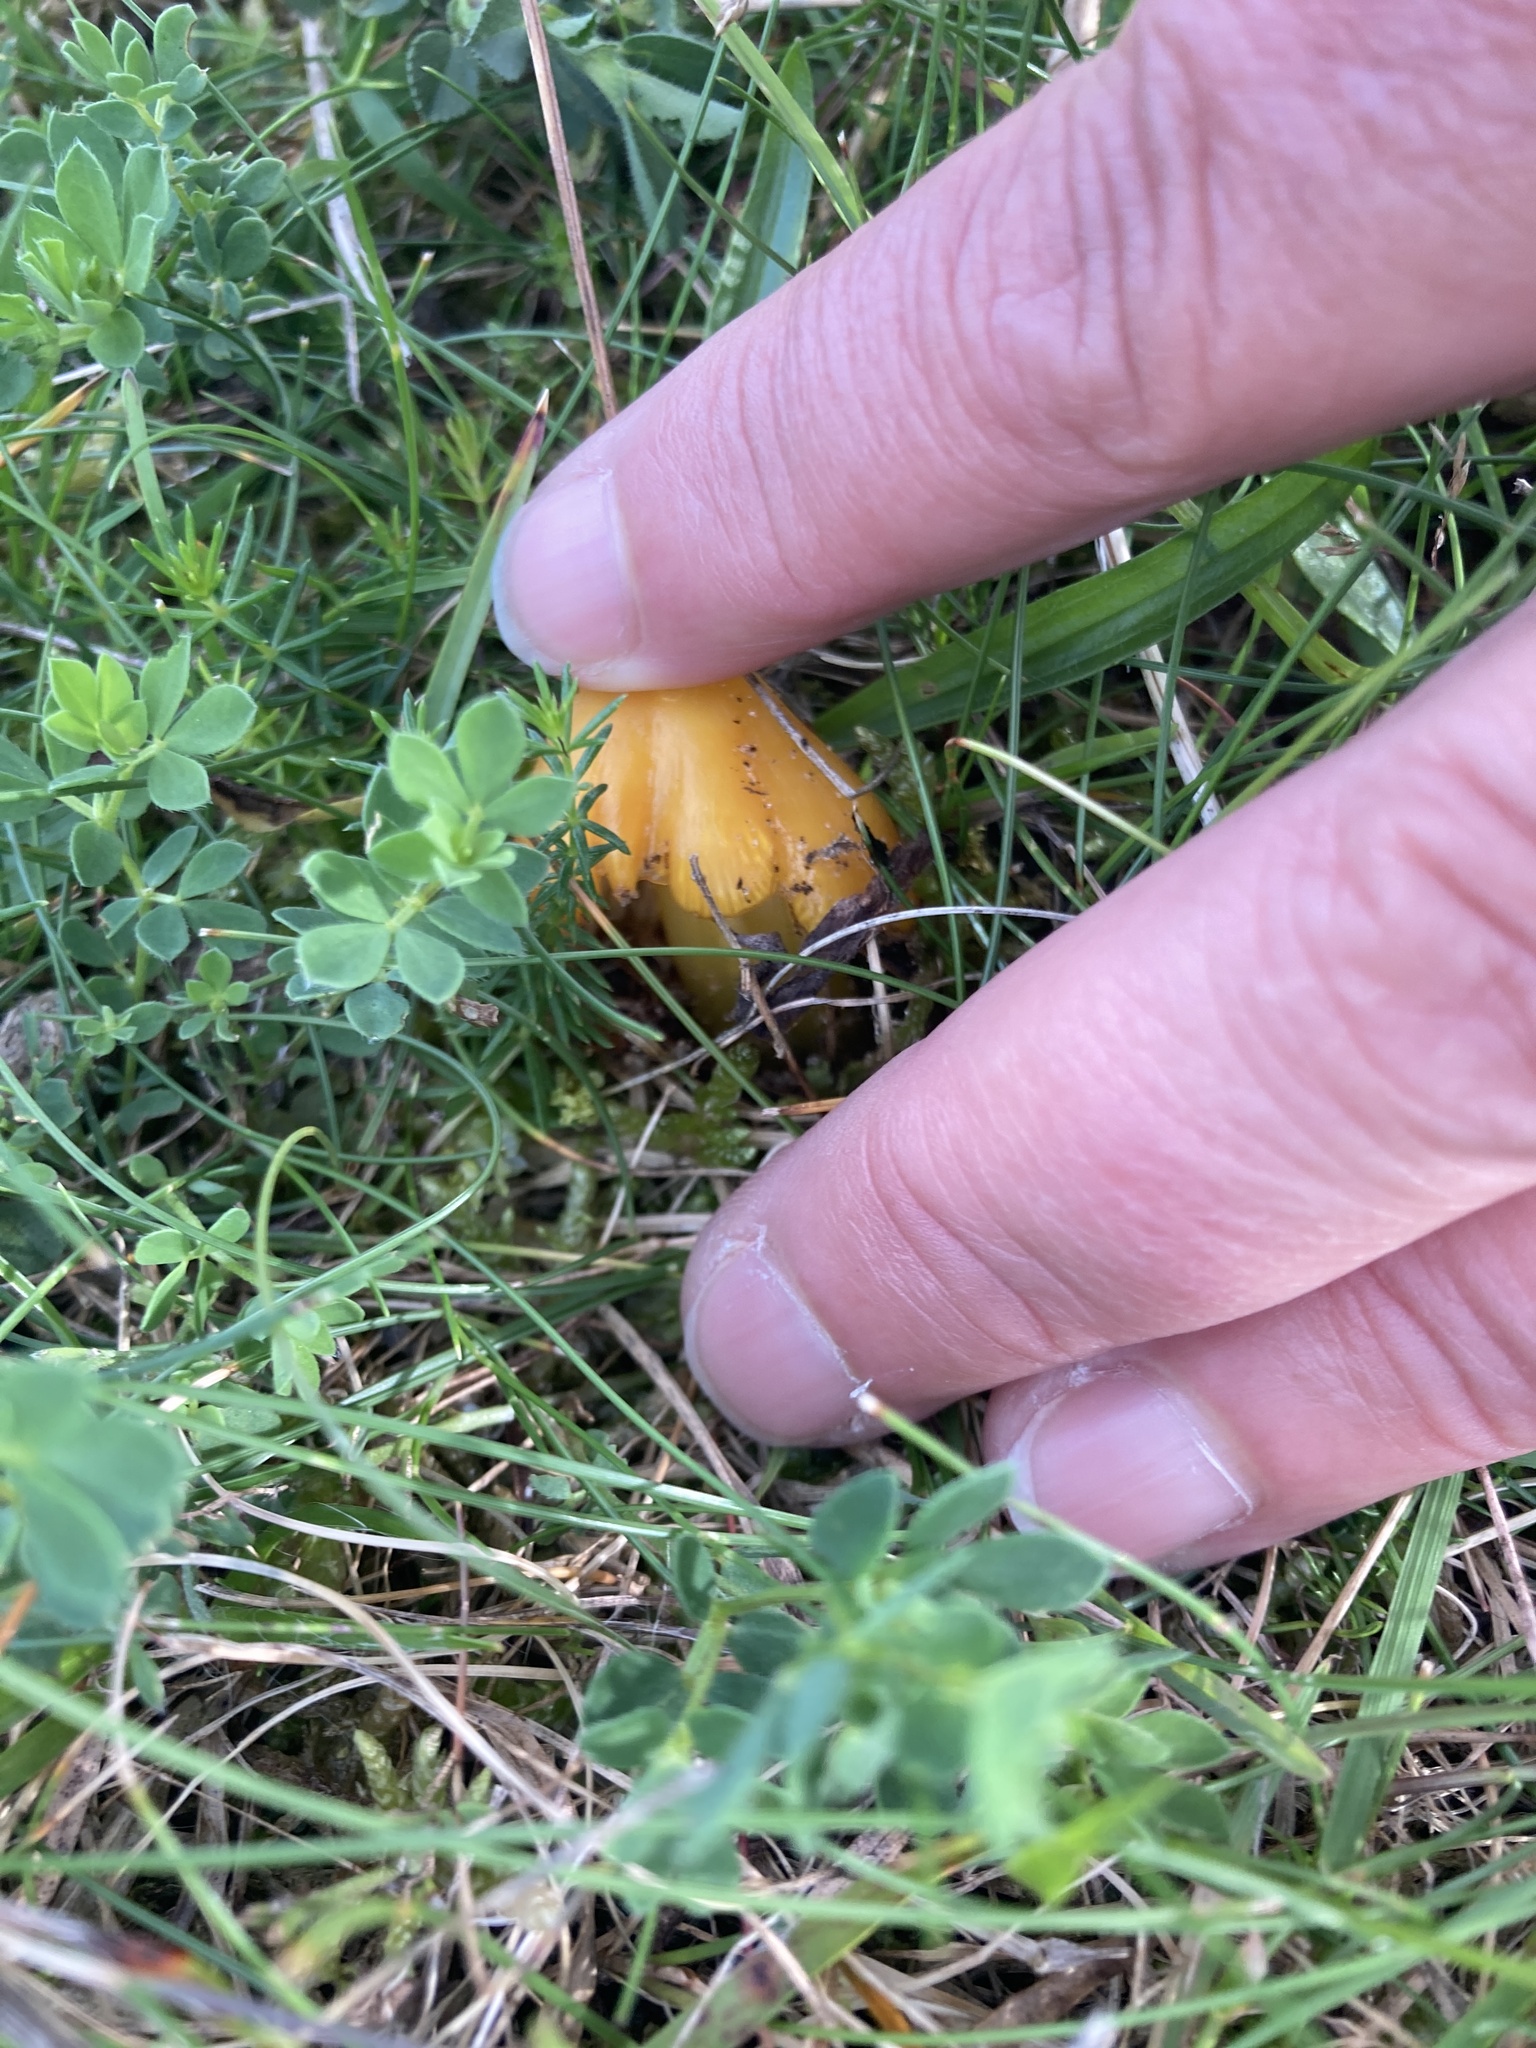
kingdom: Fungi
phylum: Basidiomycota
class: Agaricomycetes
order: Agaricales
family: Hygrophoraceae
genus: Hygrocybe
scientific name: Hygrocybe acutoconica
